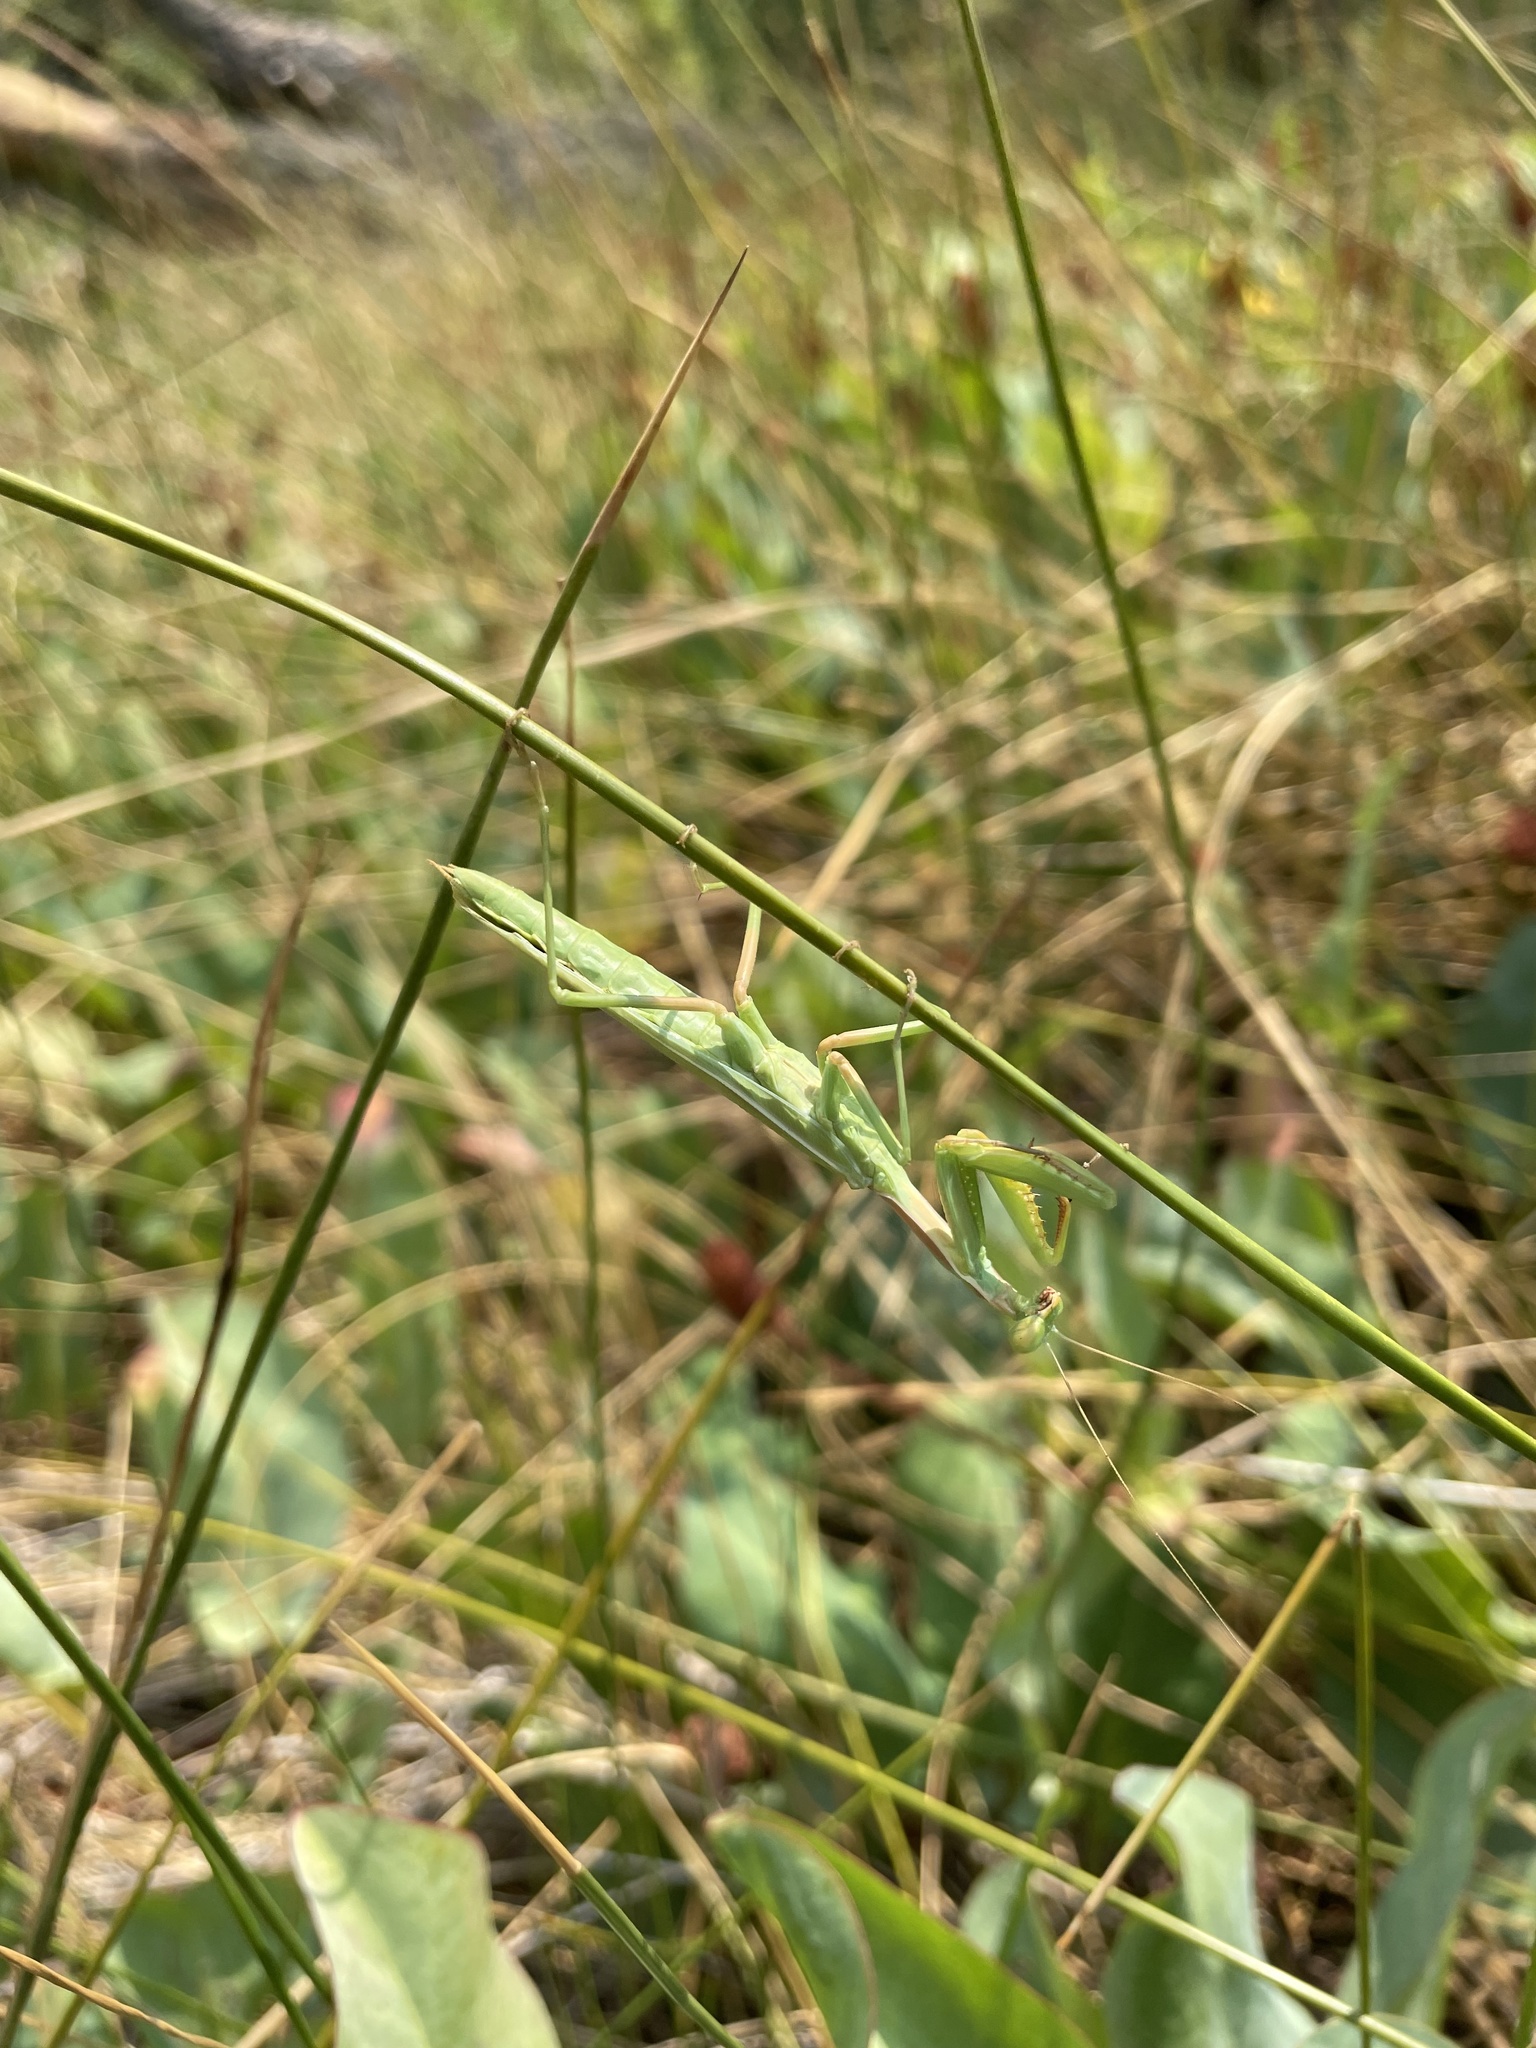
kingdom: Animalia
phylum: Arthropoda
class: Insecta
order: Mantodea
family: Eremiaphilidae
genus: Iris
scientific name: Iris oratoria
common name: Mediterranean mantis
